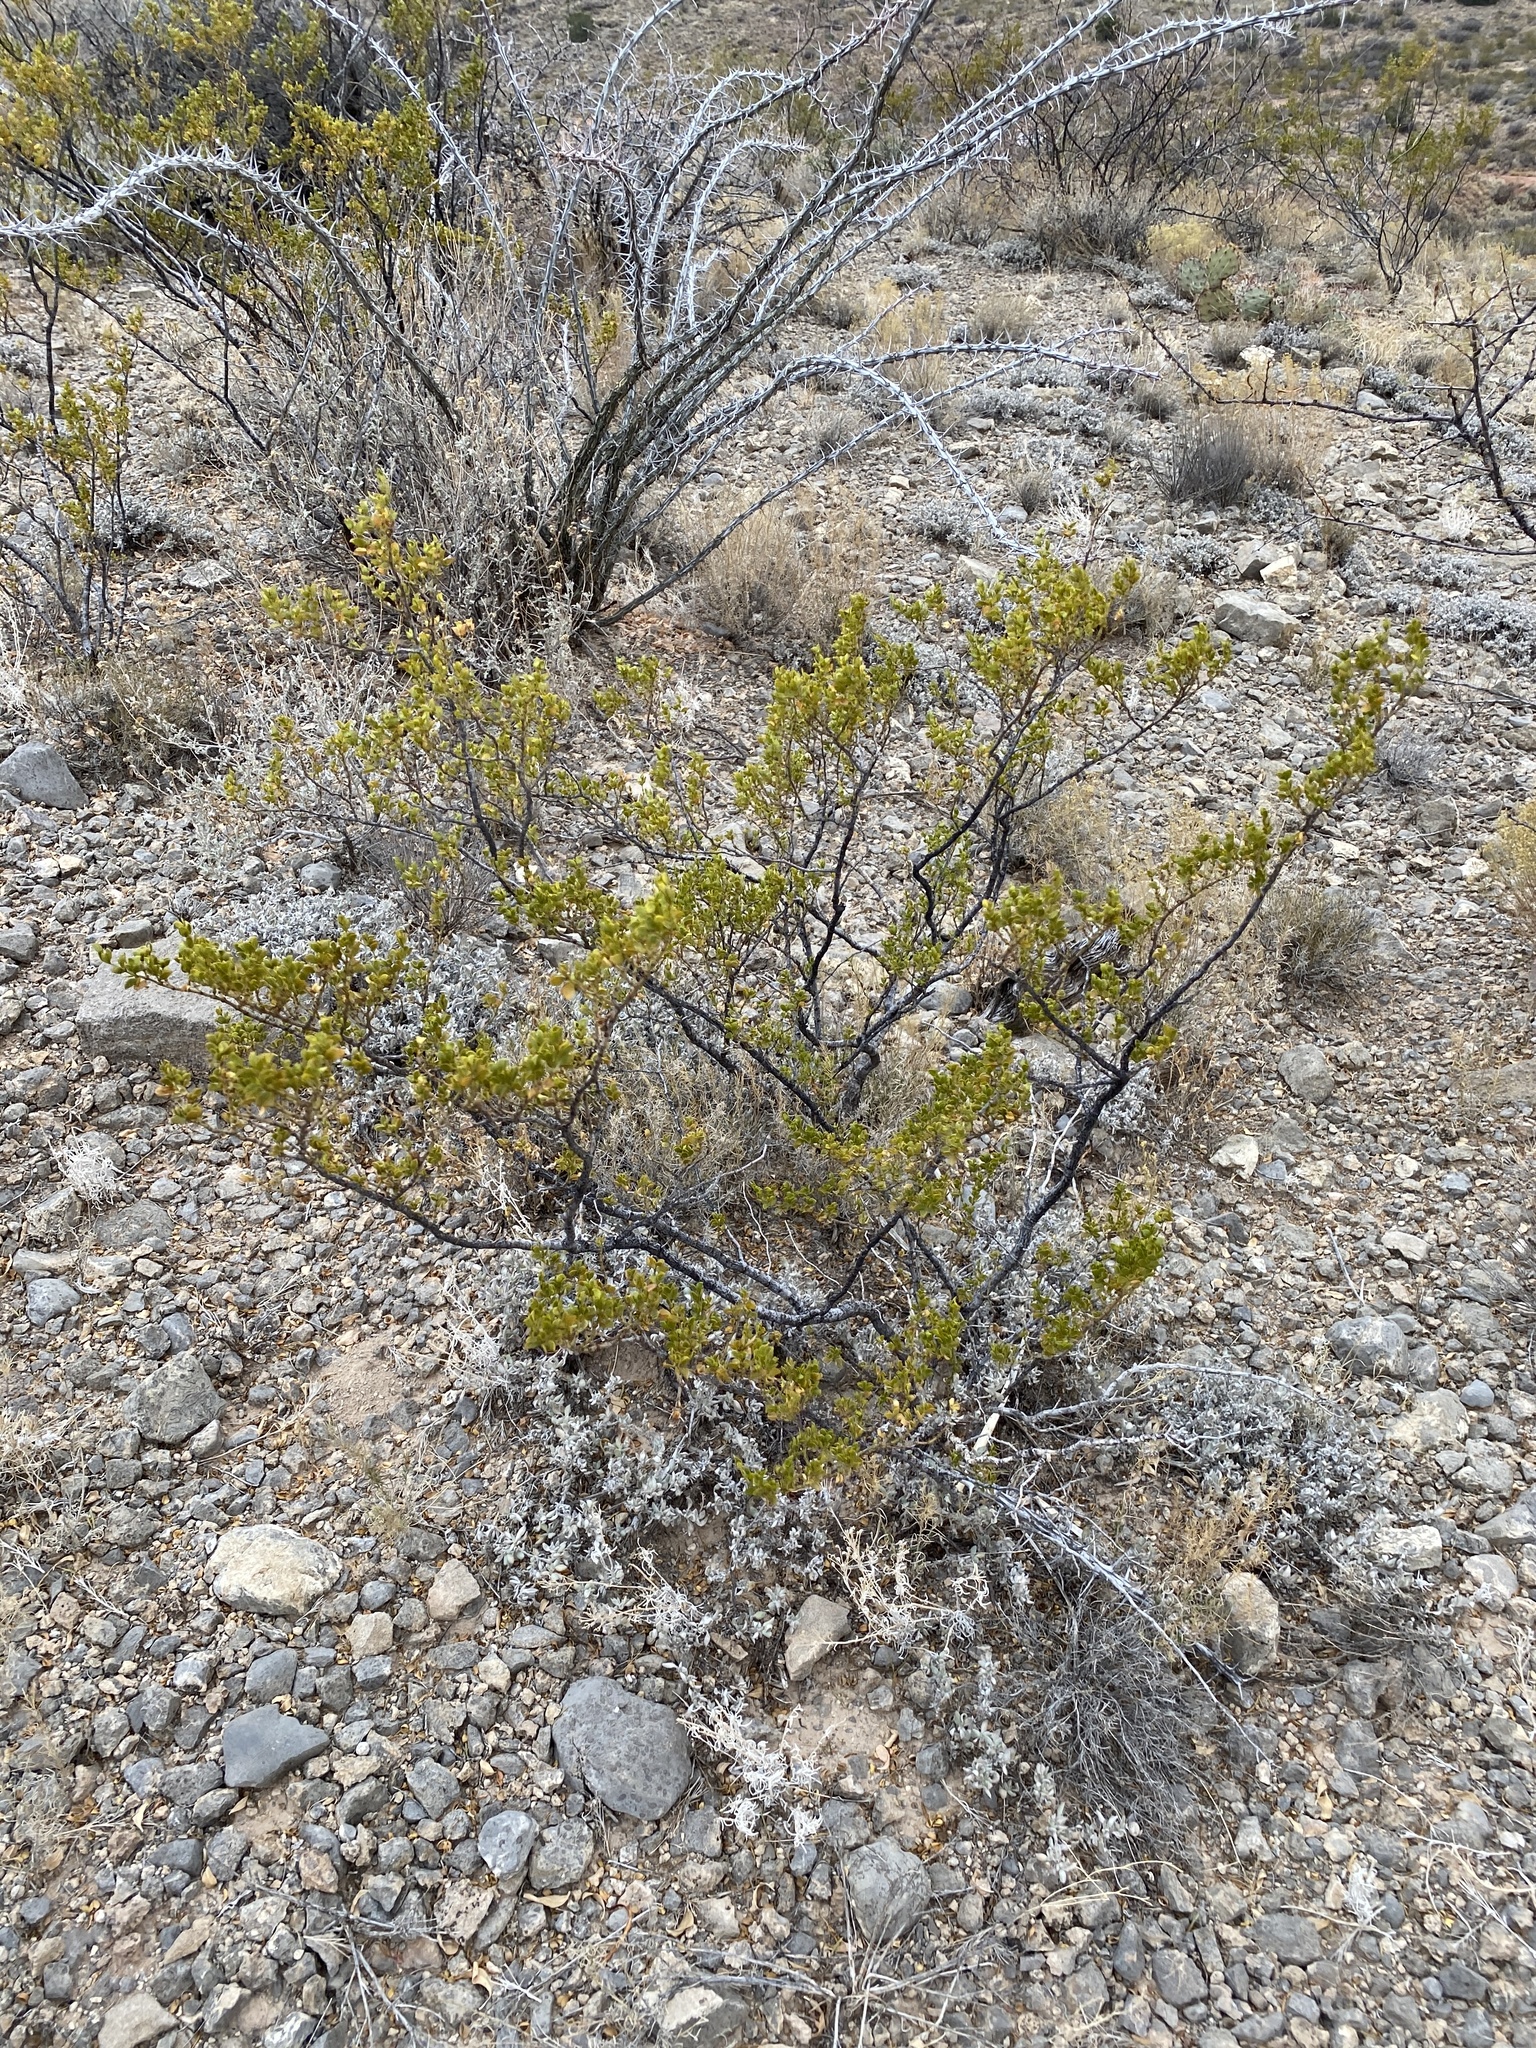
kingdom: Plantae
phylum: Tracheophyta
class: Magnoliopsida
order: Zygophyllales
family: Zygophyllaceae
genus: Larrea
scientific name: Larrea tridentata
